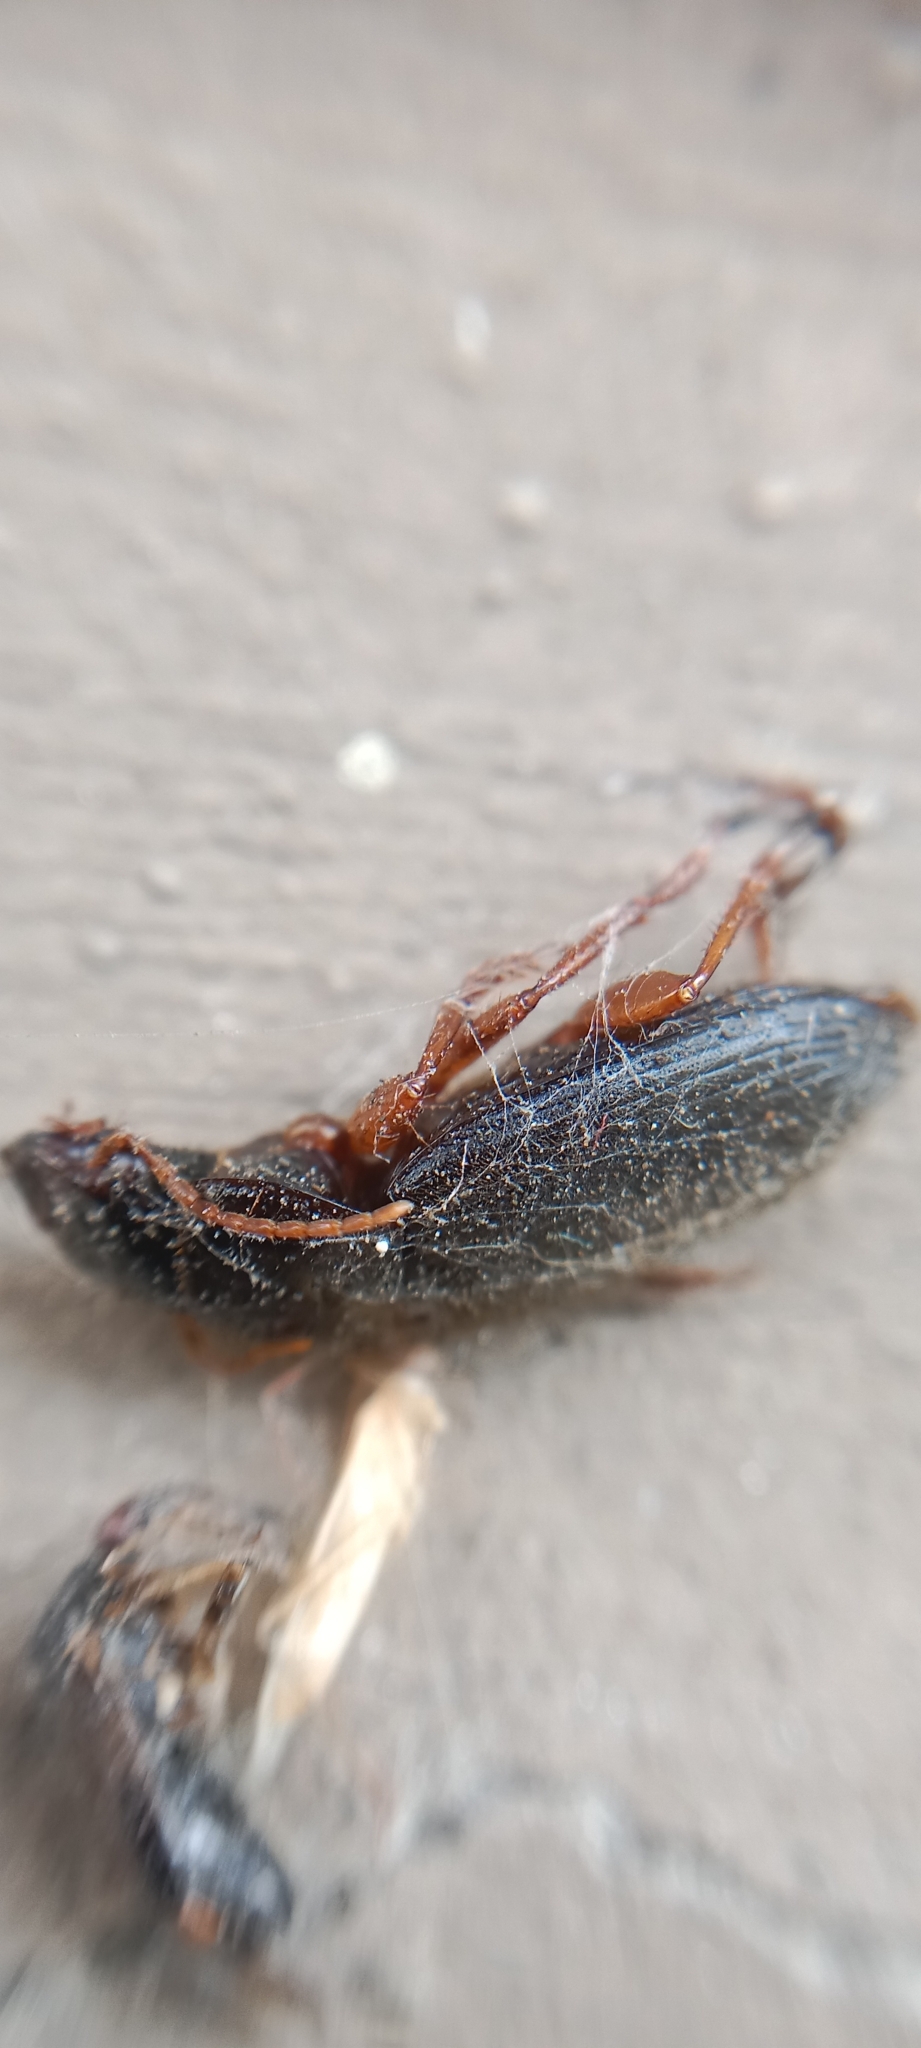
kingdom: Animalia
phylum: Arthropoda
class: Insecta
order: Coleoptera
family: Carabidae
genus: Harpalus
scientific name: Harpalus rufipes
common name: Strawberry harp ground beetle
